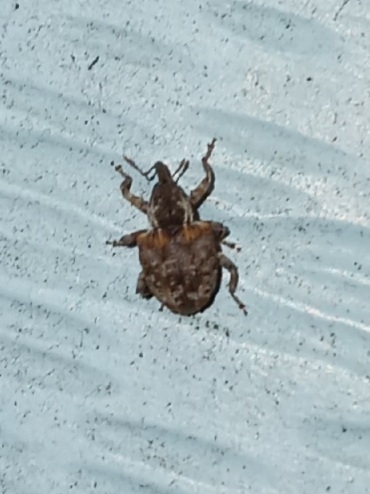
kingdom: Animalia
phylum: Arthropoda
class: Insecta
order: Coleoptera
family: Curculionidae
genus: Conotrachelus
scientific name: Conotrachelus carolinensis
